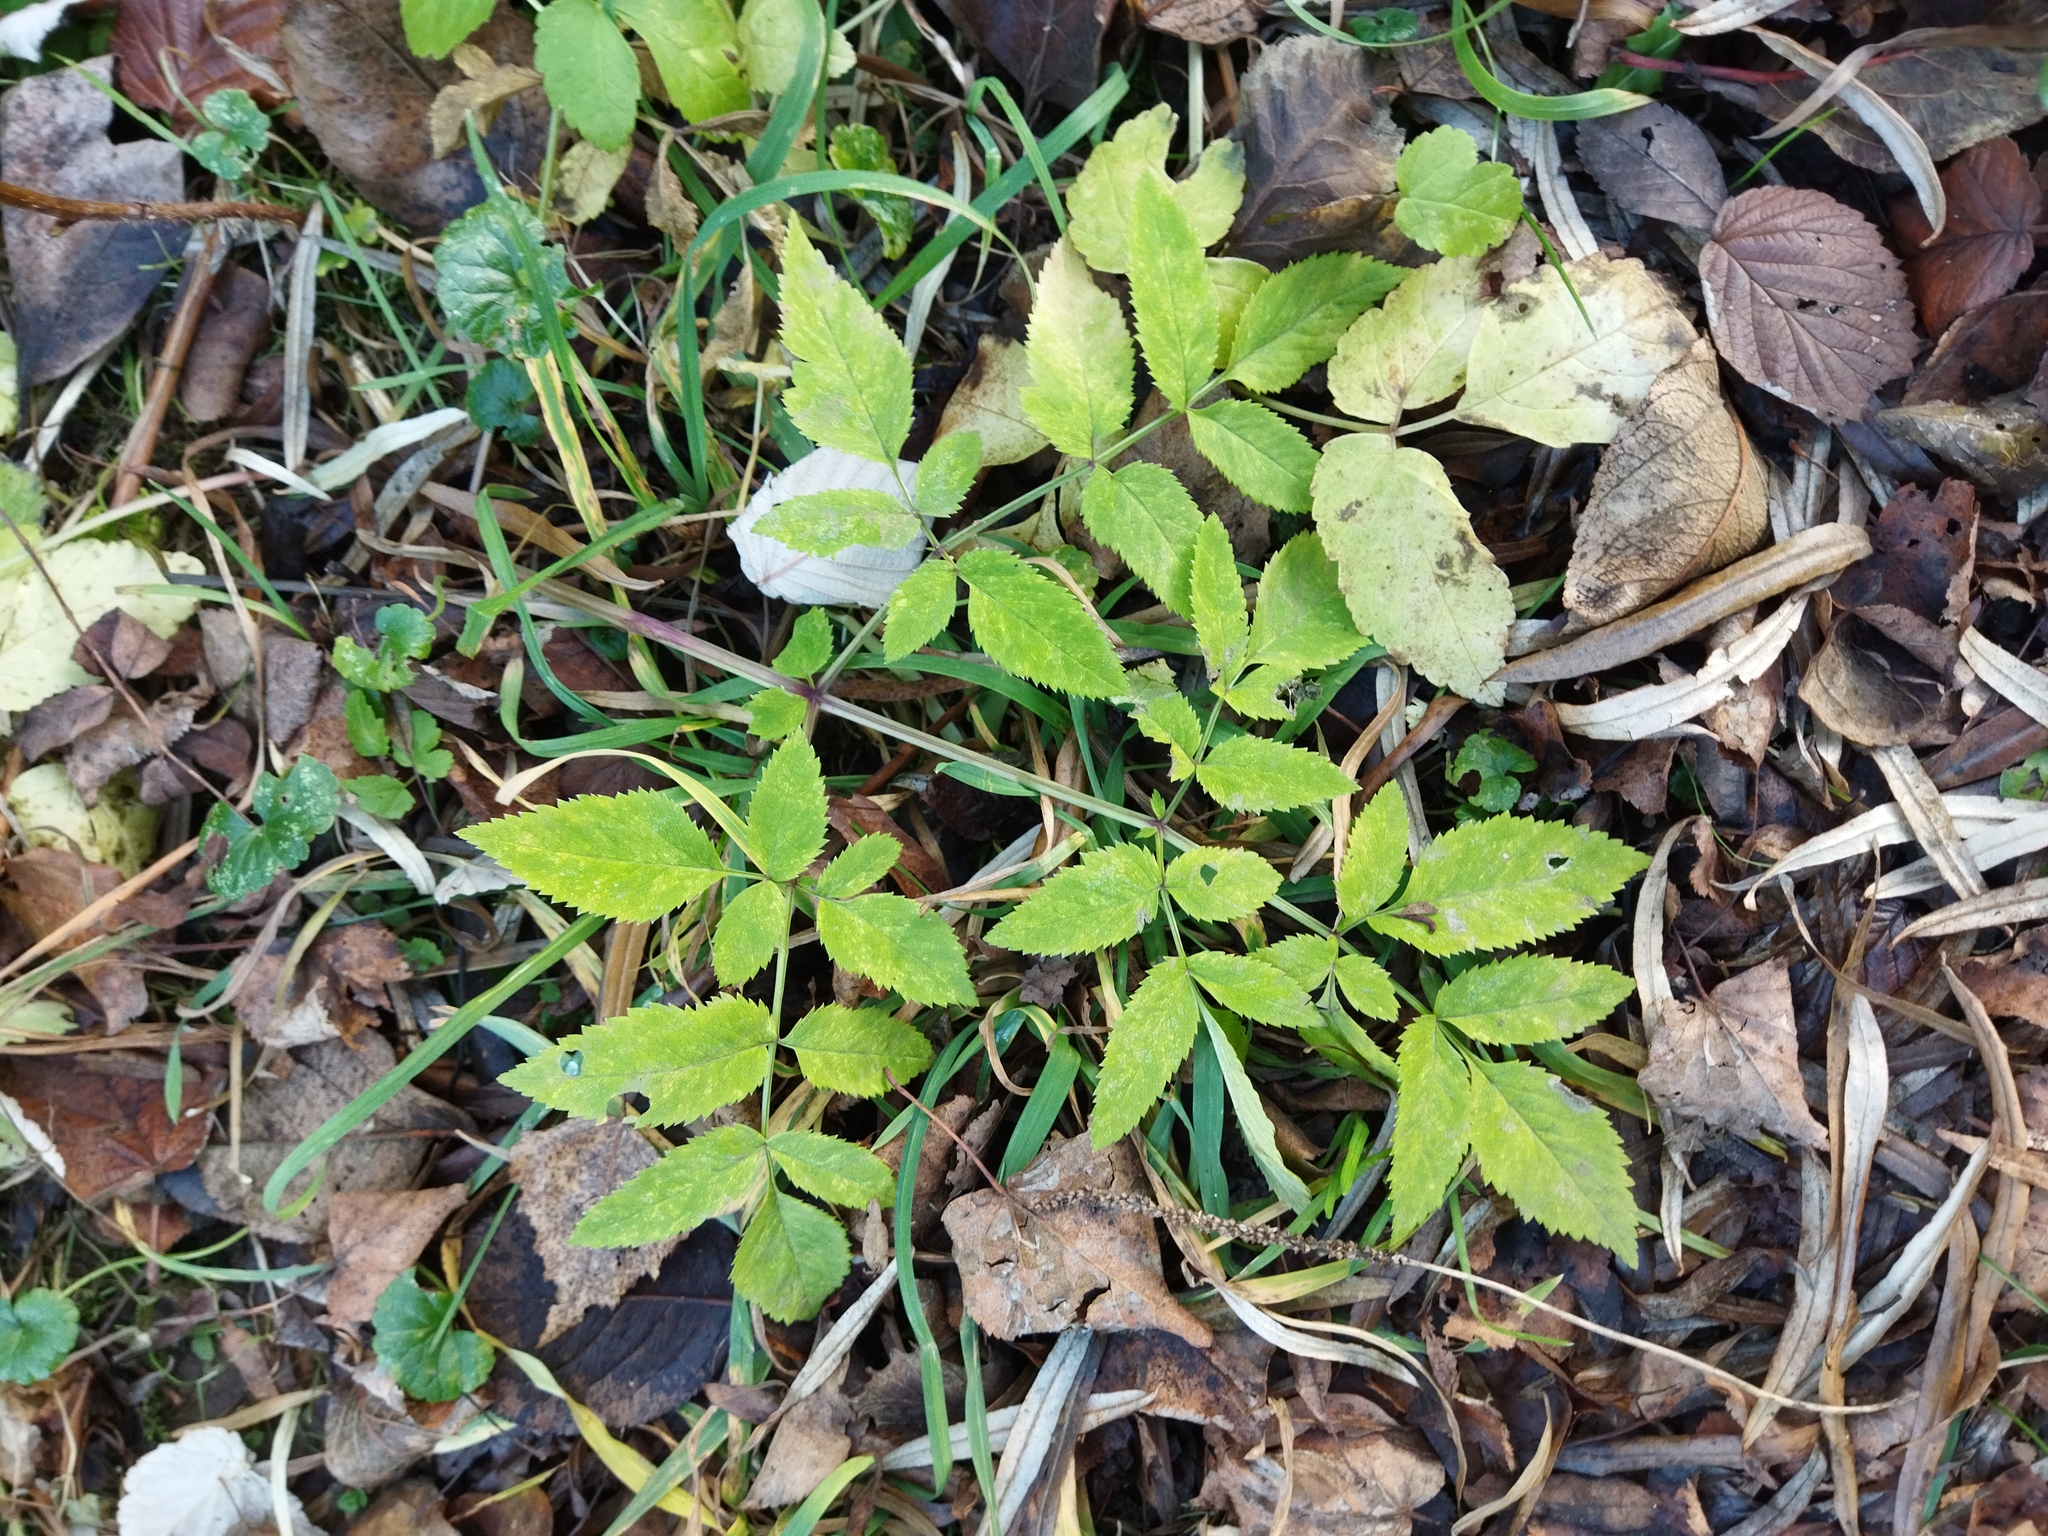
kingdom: Plantae
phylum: Tracheophyta
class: Magnoliopsida
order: Apiales
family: Apiaceae
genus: Angelica
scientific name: Angelica sylvestris
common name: Wild angelica
